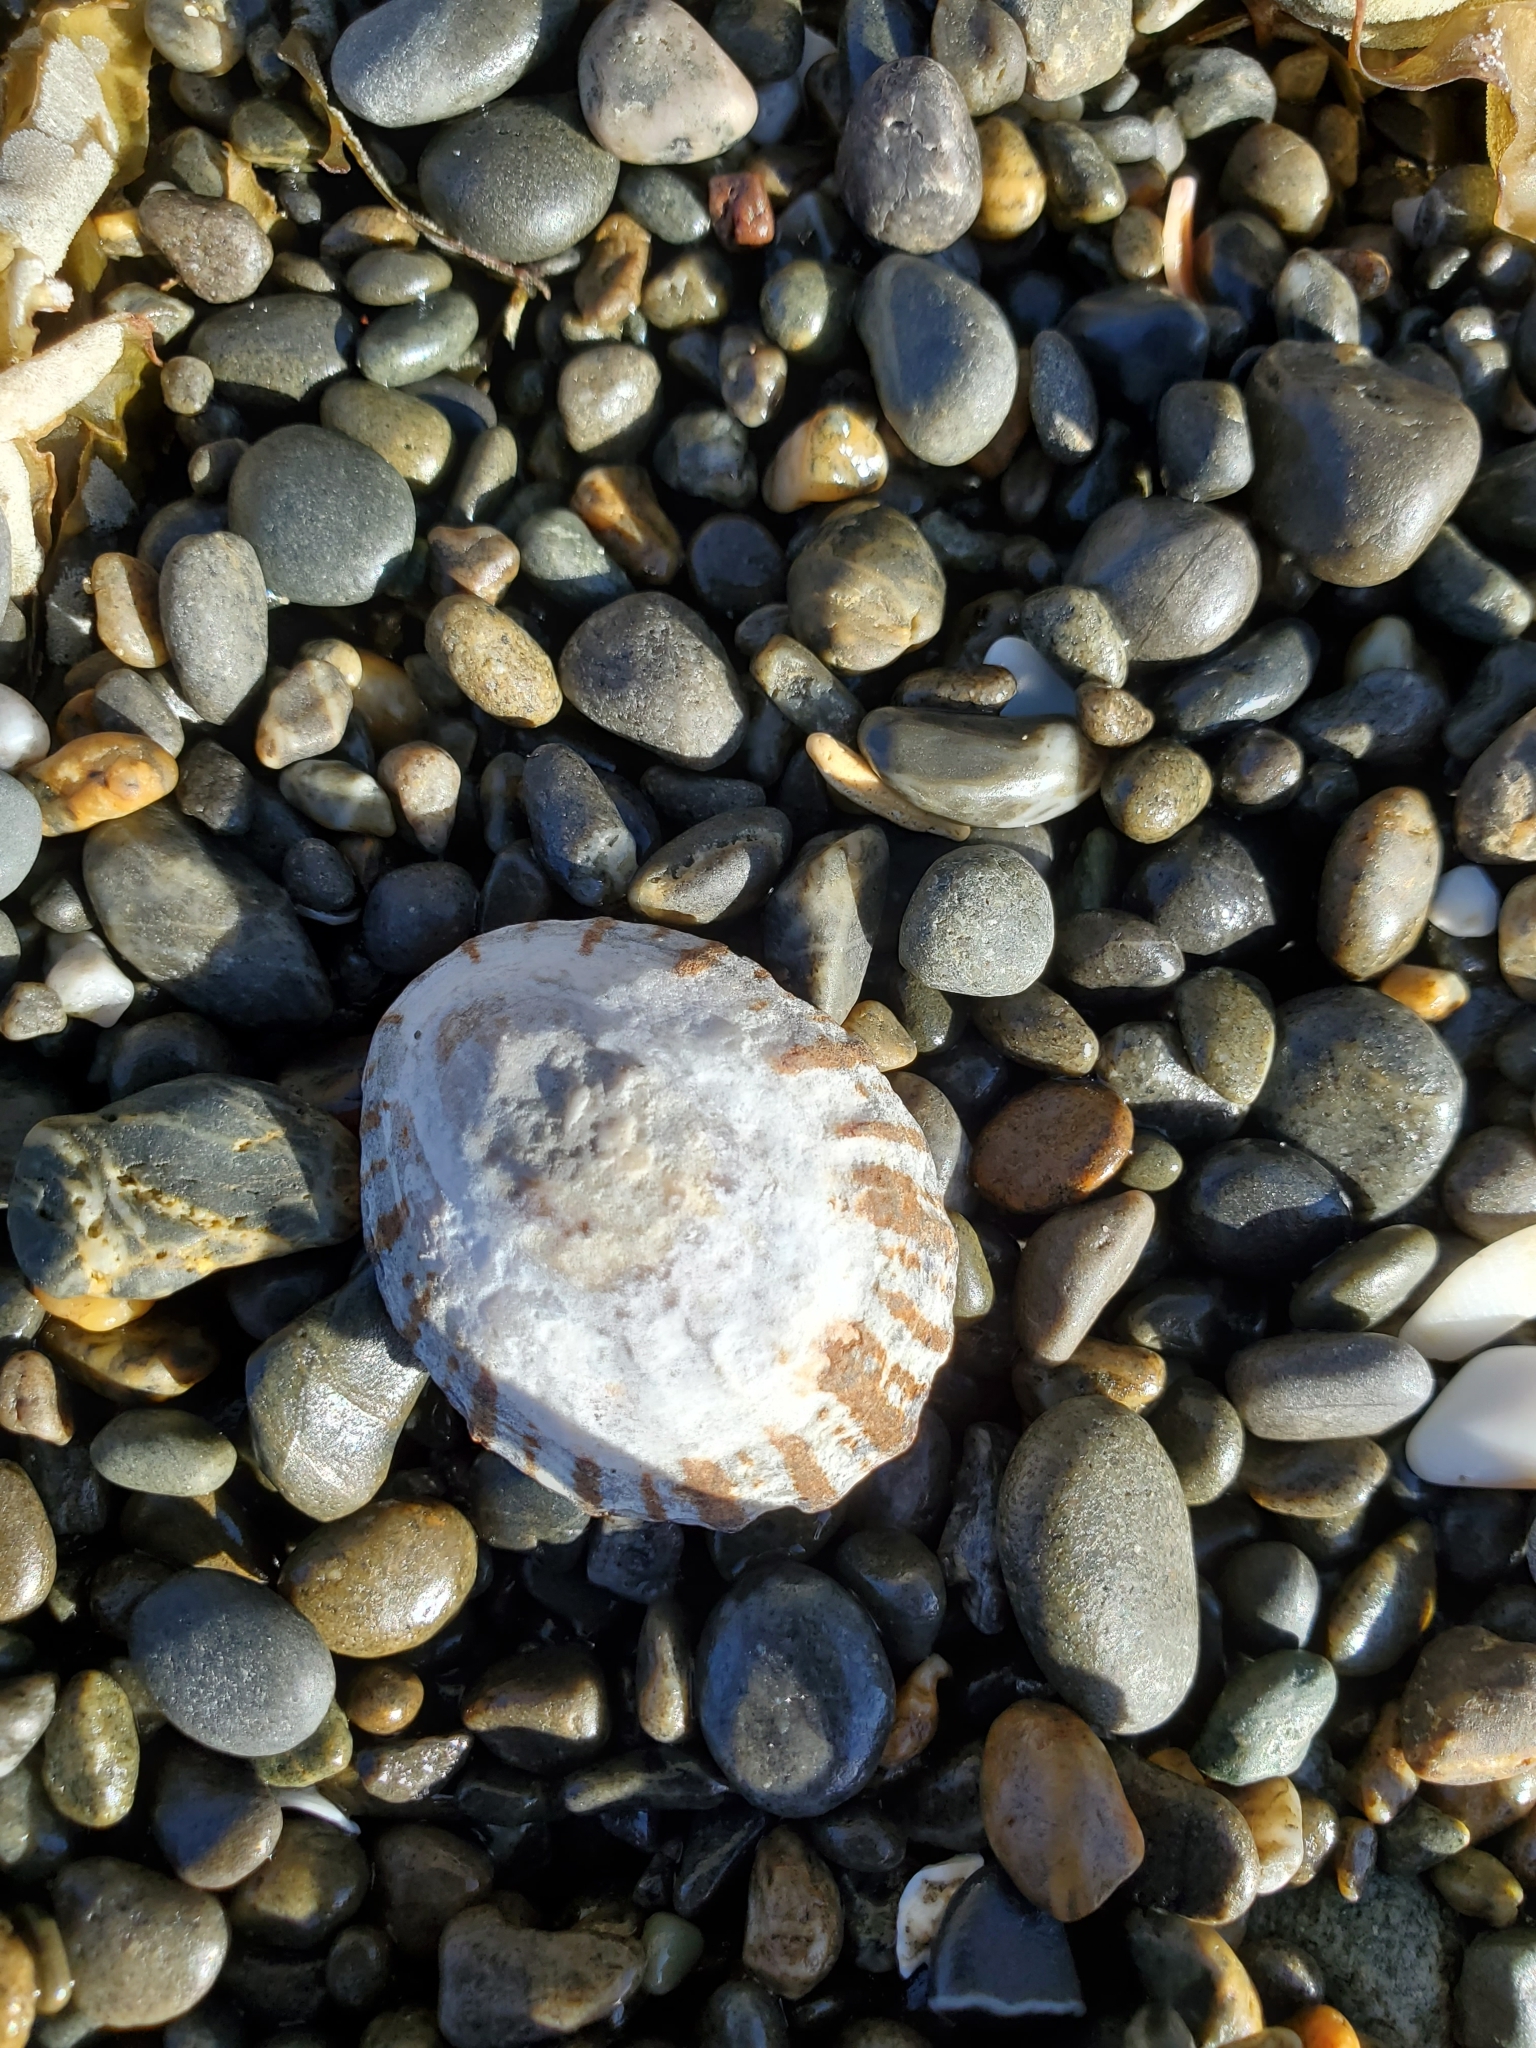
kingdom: Animalia
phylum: Mollusca
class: Gastropoda
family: Nacellidae
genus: Cellana
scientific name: Cellana radians
